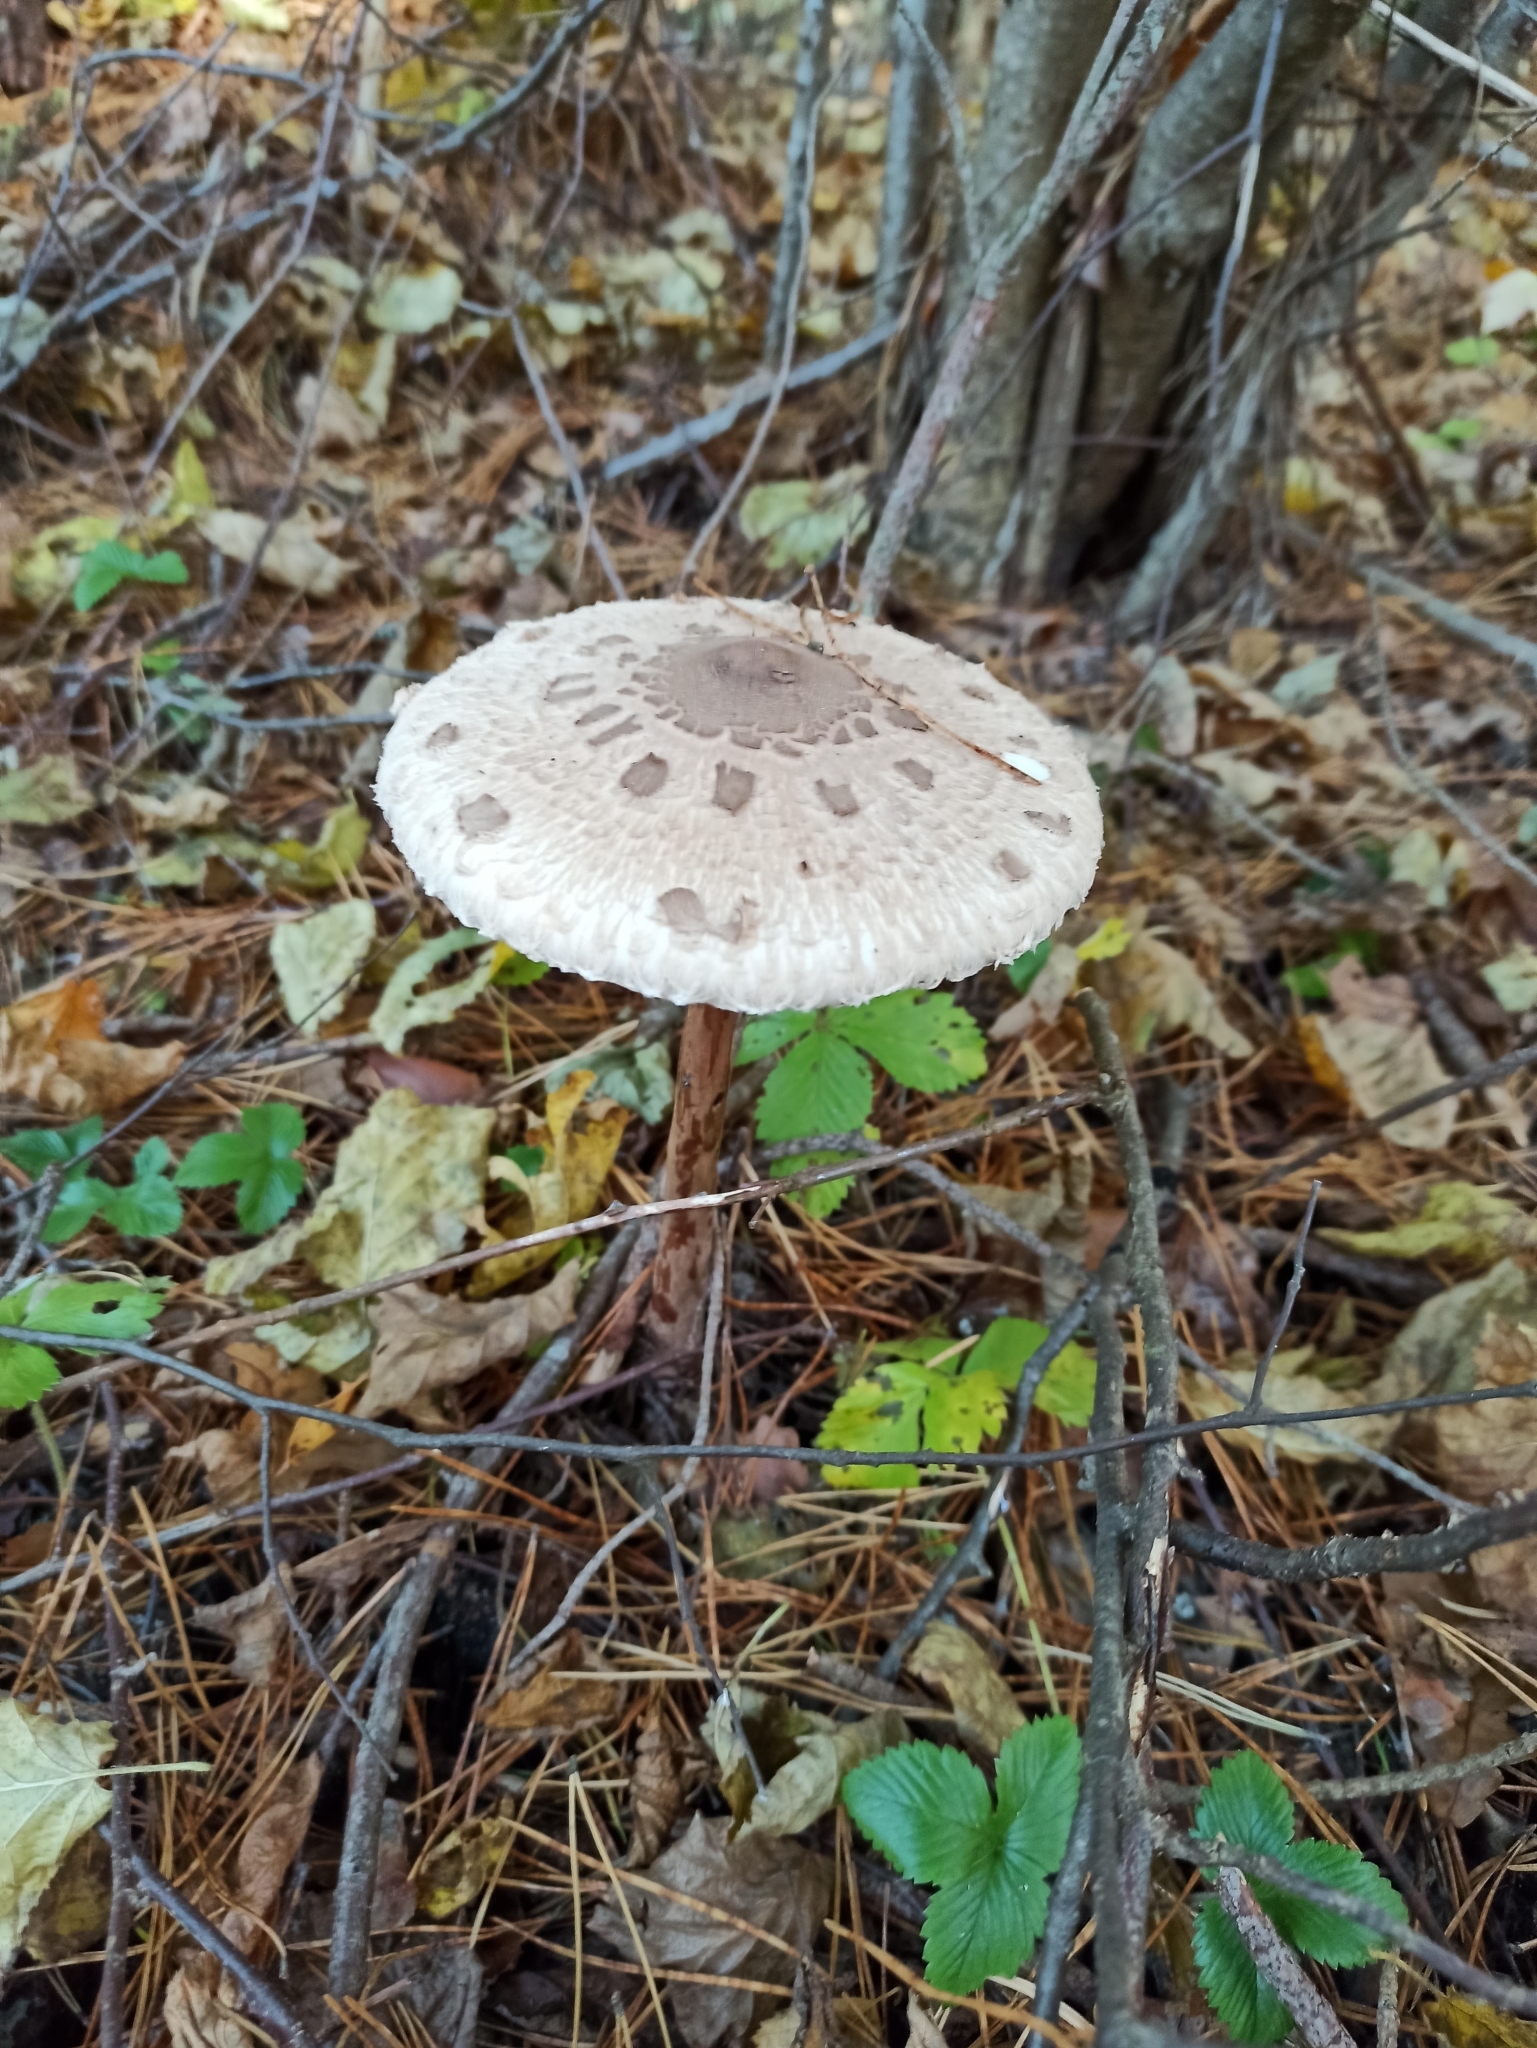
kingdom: Fungi
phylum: Basidiomycota
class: Agaricomycetes
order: Agaricales
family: Agaricaceae
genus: Macrolepiota
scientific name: Macrolepiota procera
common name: Parasol
